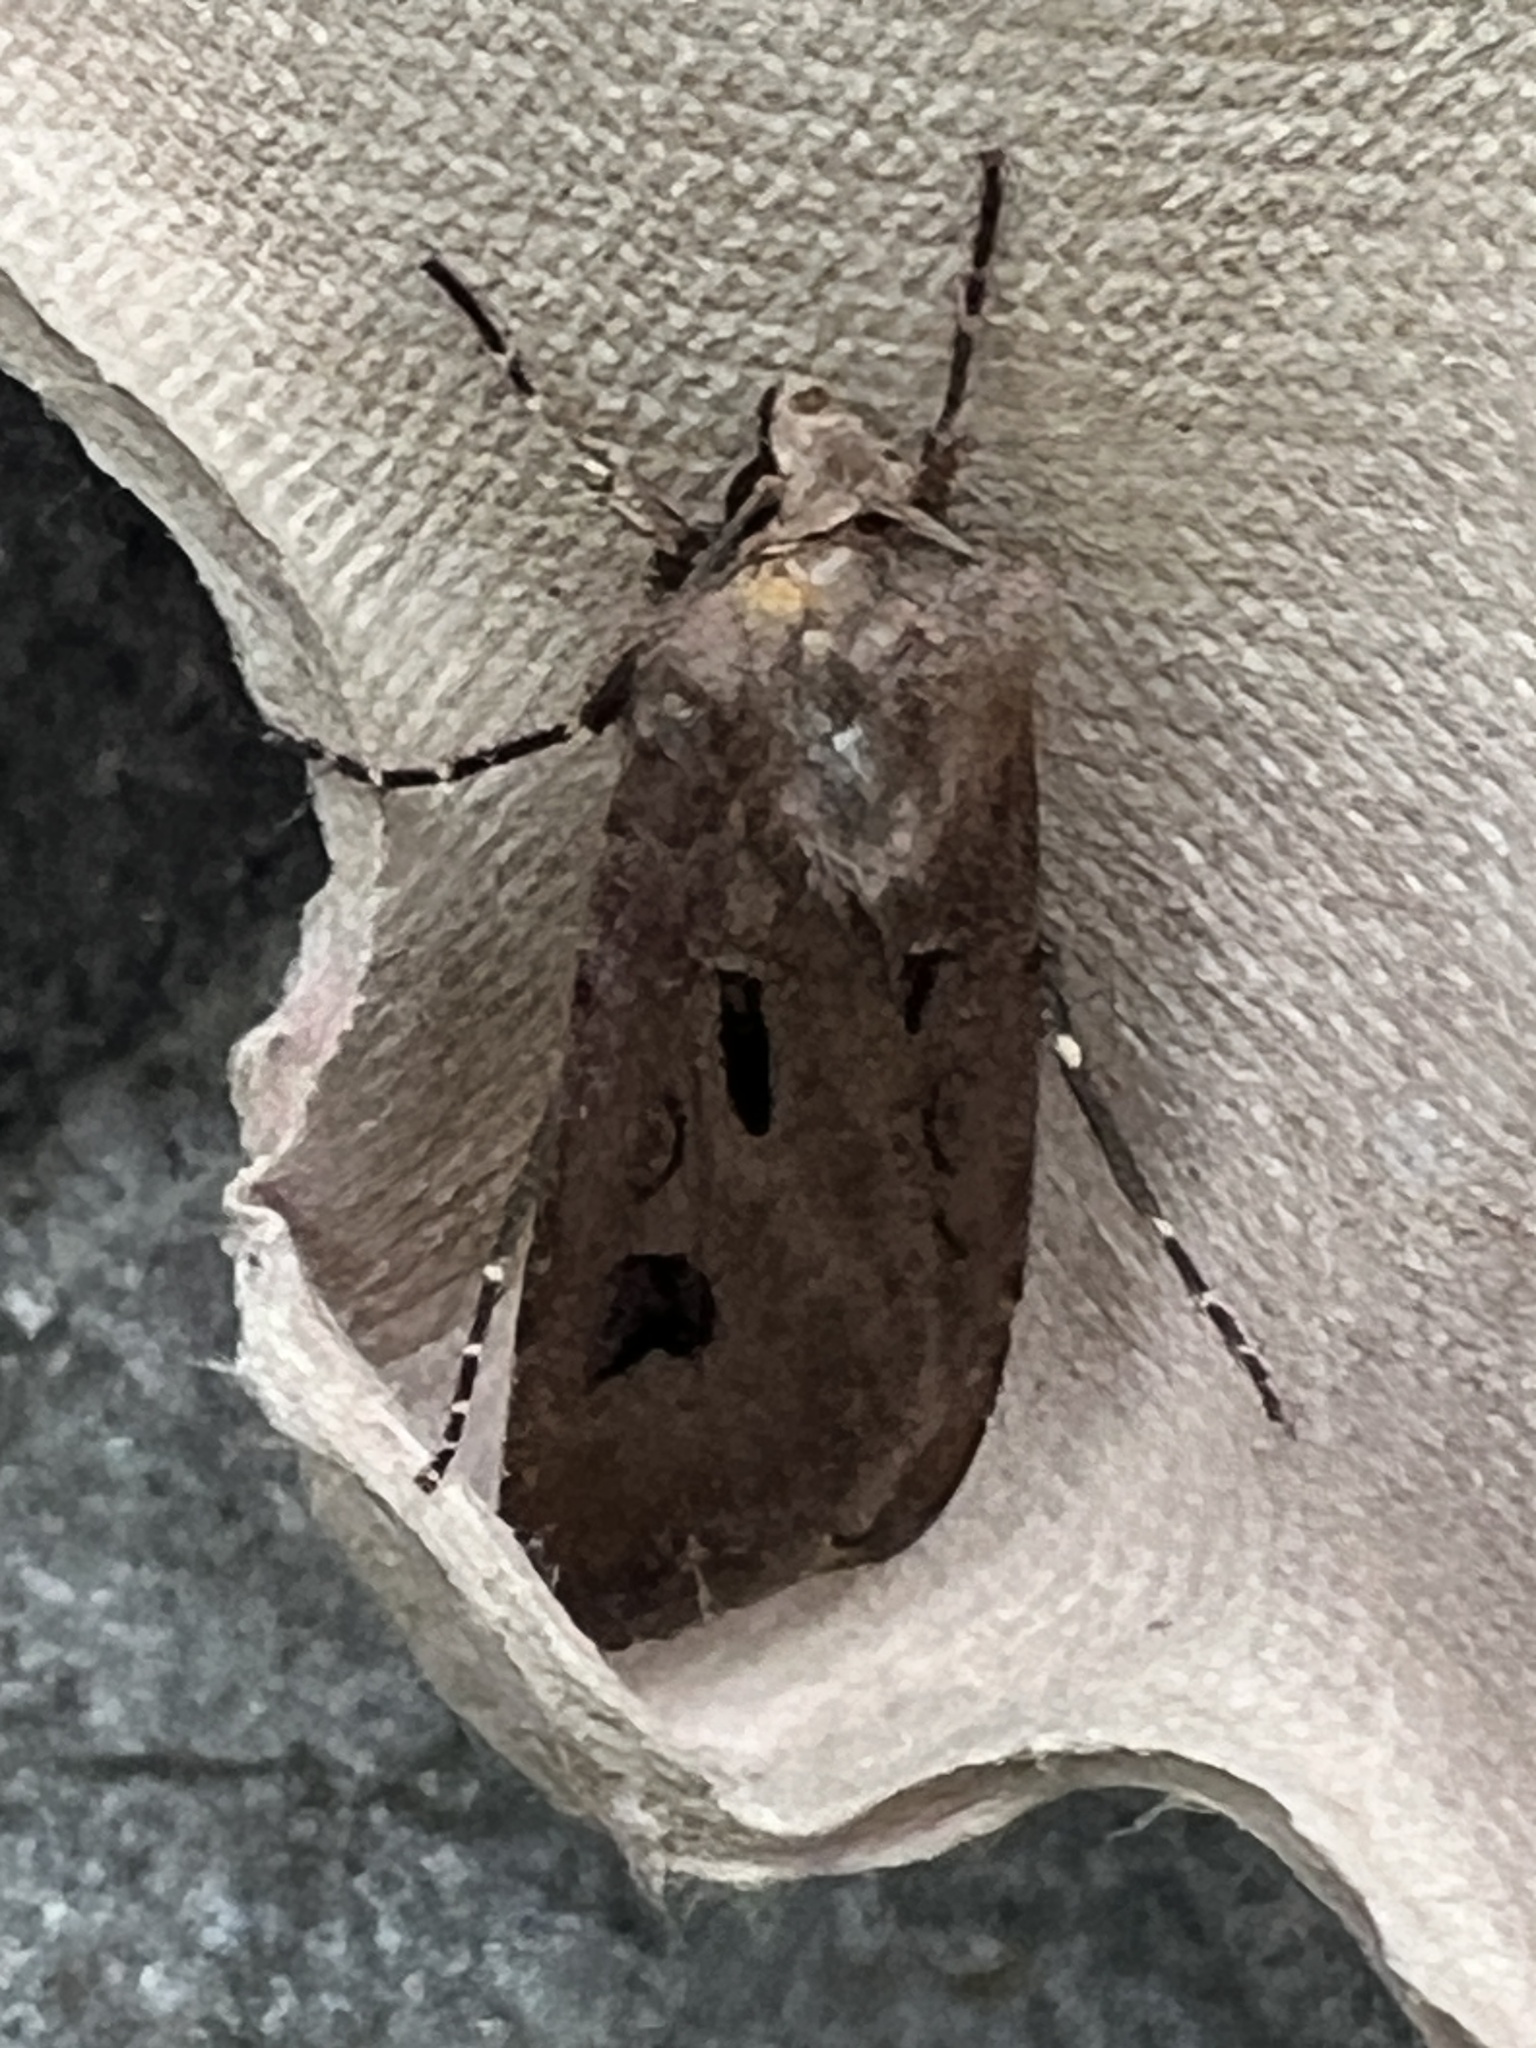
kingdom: Animalia
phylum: Arthropoda
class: Insecta
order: Lepidoptera
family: Noctuidae
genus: Agrotis
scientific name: Agrotis exclamationis
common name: Heart and dart
